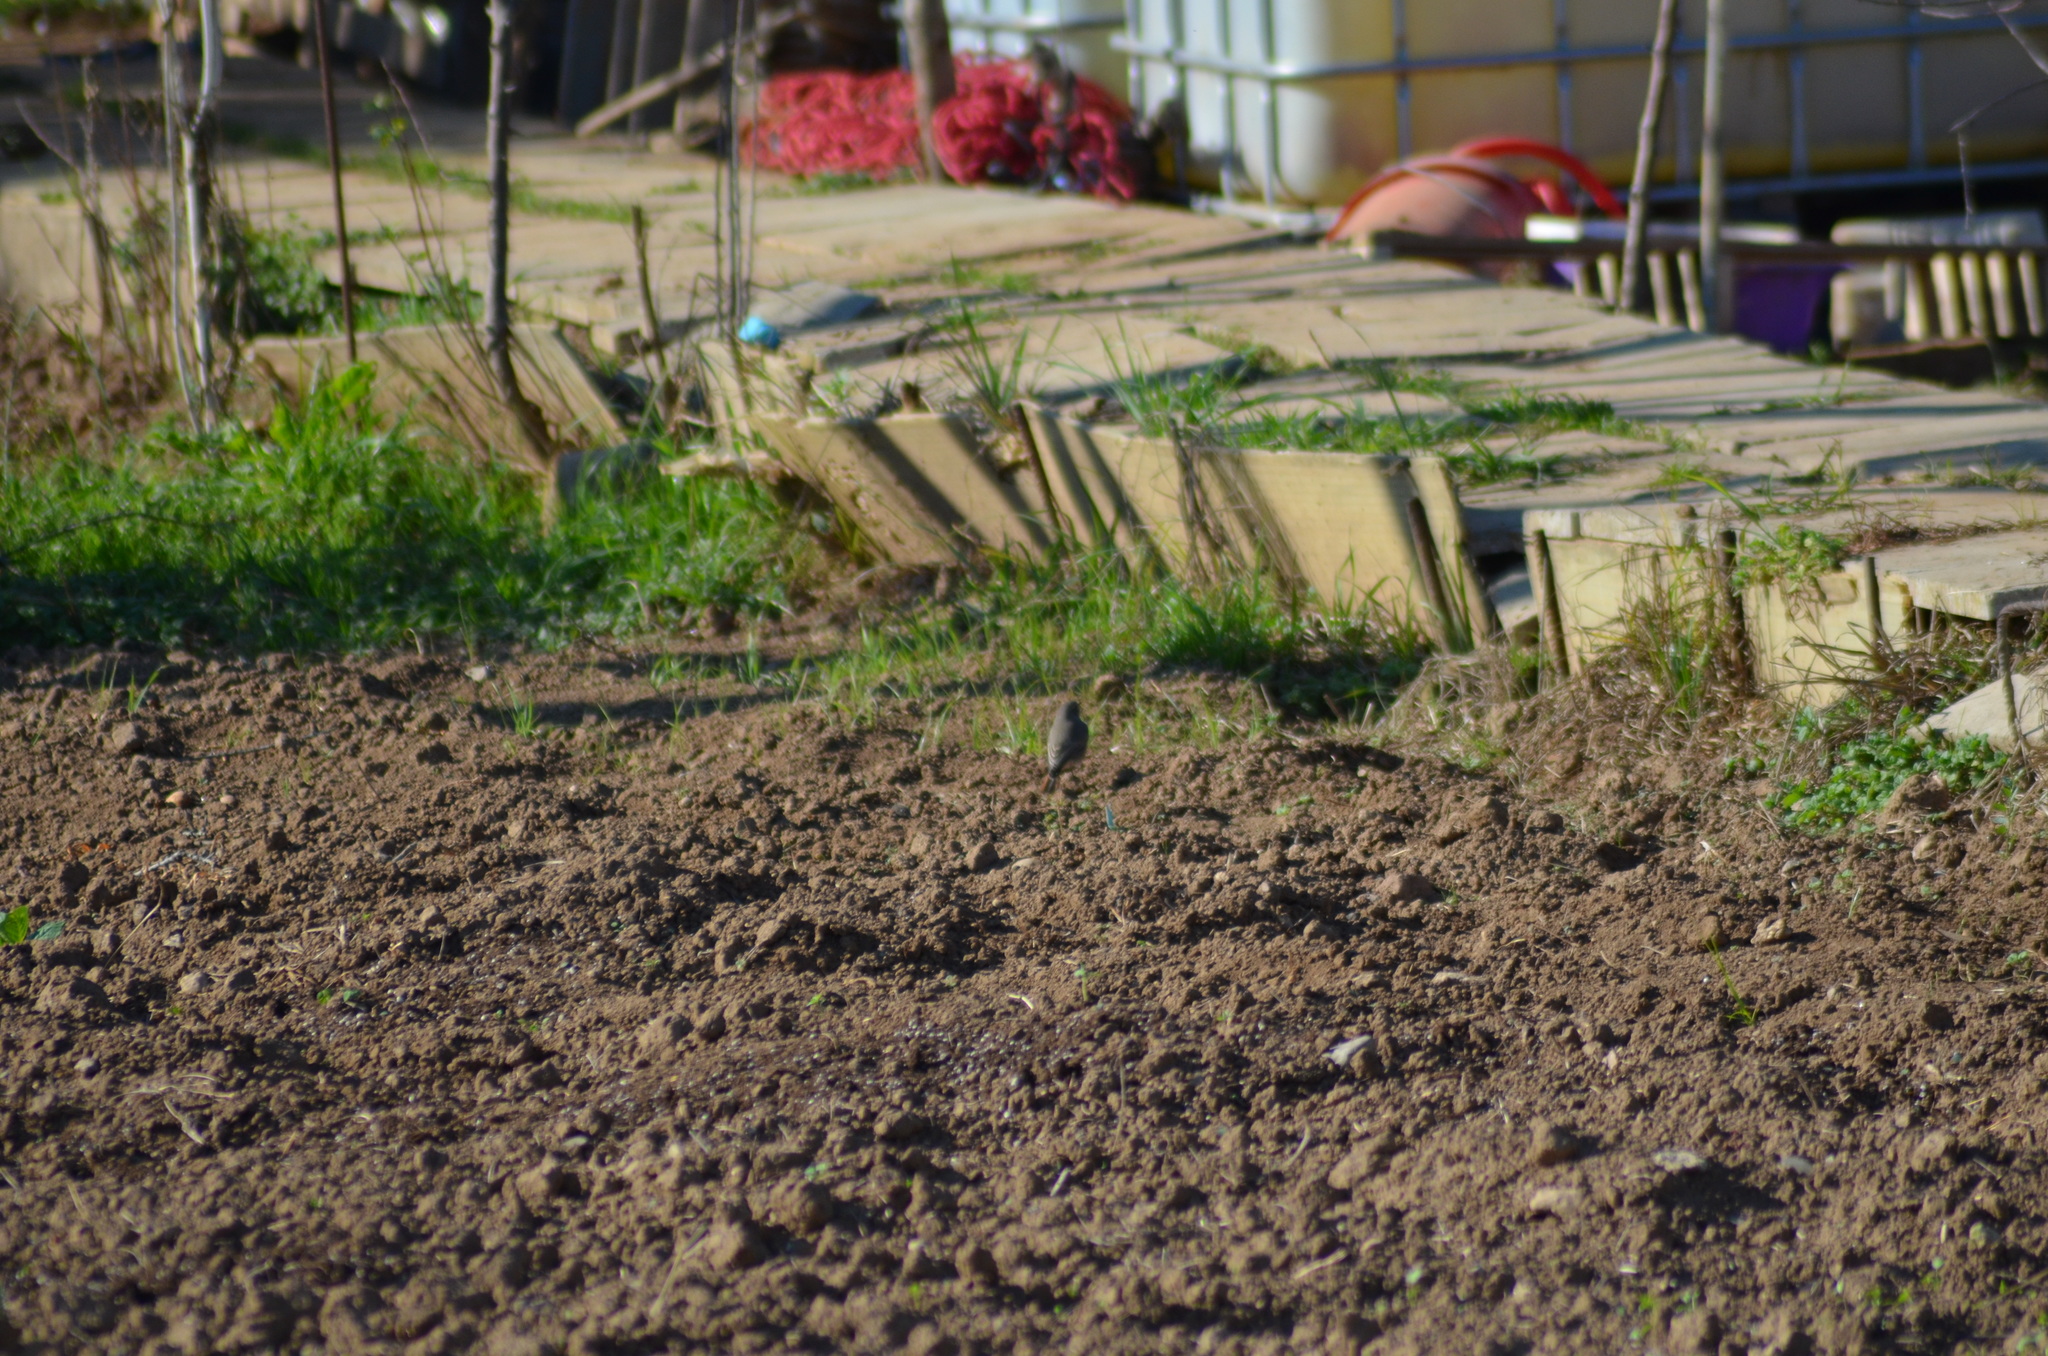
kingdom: Animalia
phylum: Chordata
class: Aves
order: Passeriformes
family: Muscicapidae
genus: Phoenicurus
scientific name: Phoenicurus ochruros
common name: Black redstart
